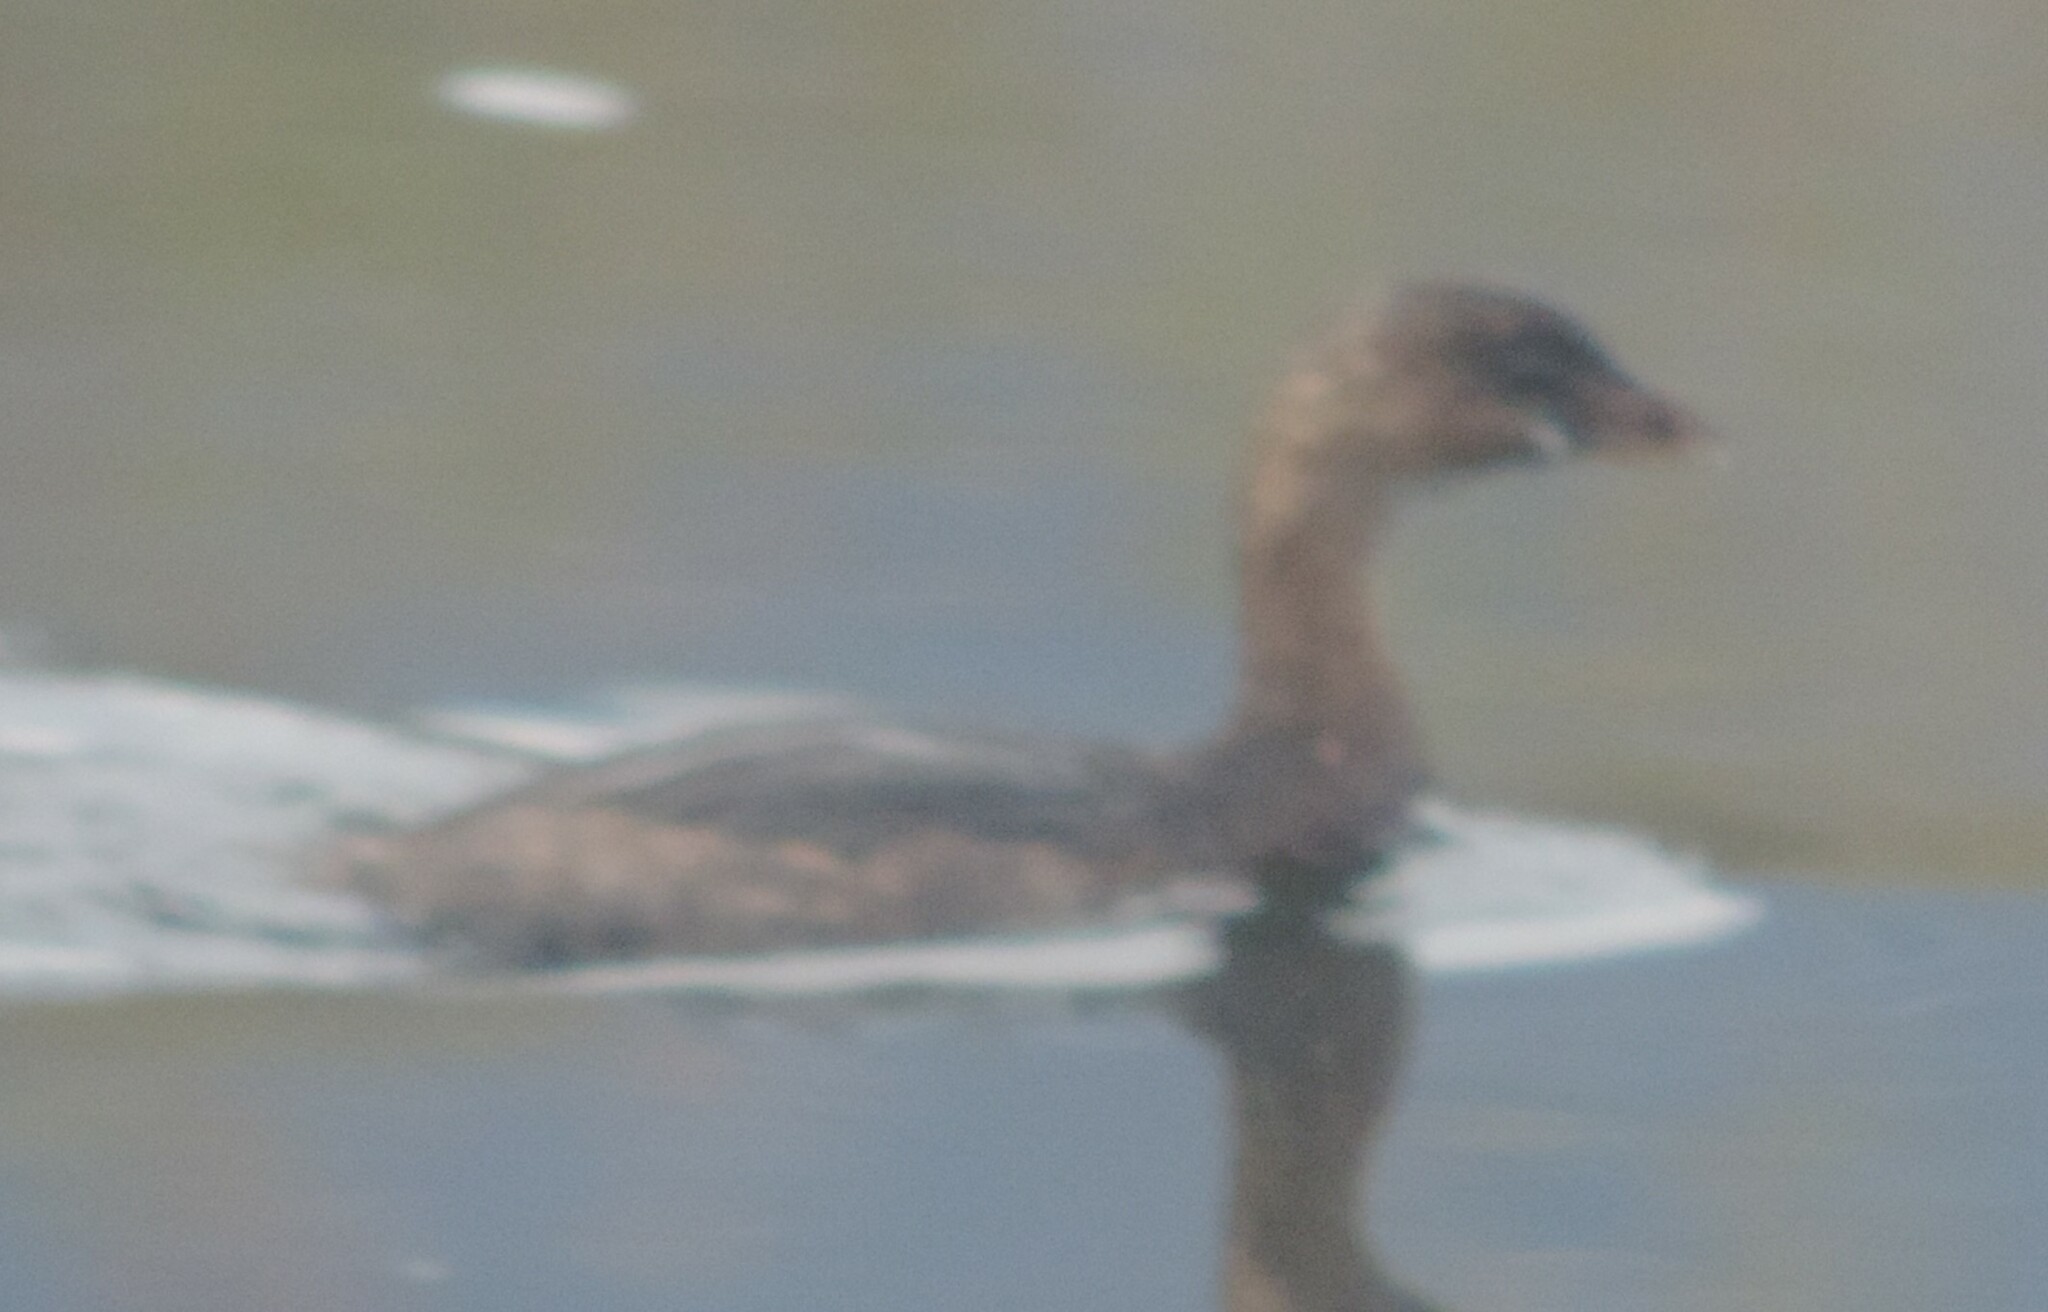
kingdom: Animalia
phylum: Chordata
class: Aves
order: Podicipediformes
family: Podicipedidae
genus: Podilymbus
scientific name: Podilymbus podiceps
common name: Pied-billed grebe
